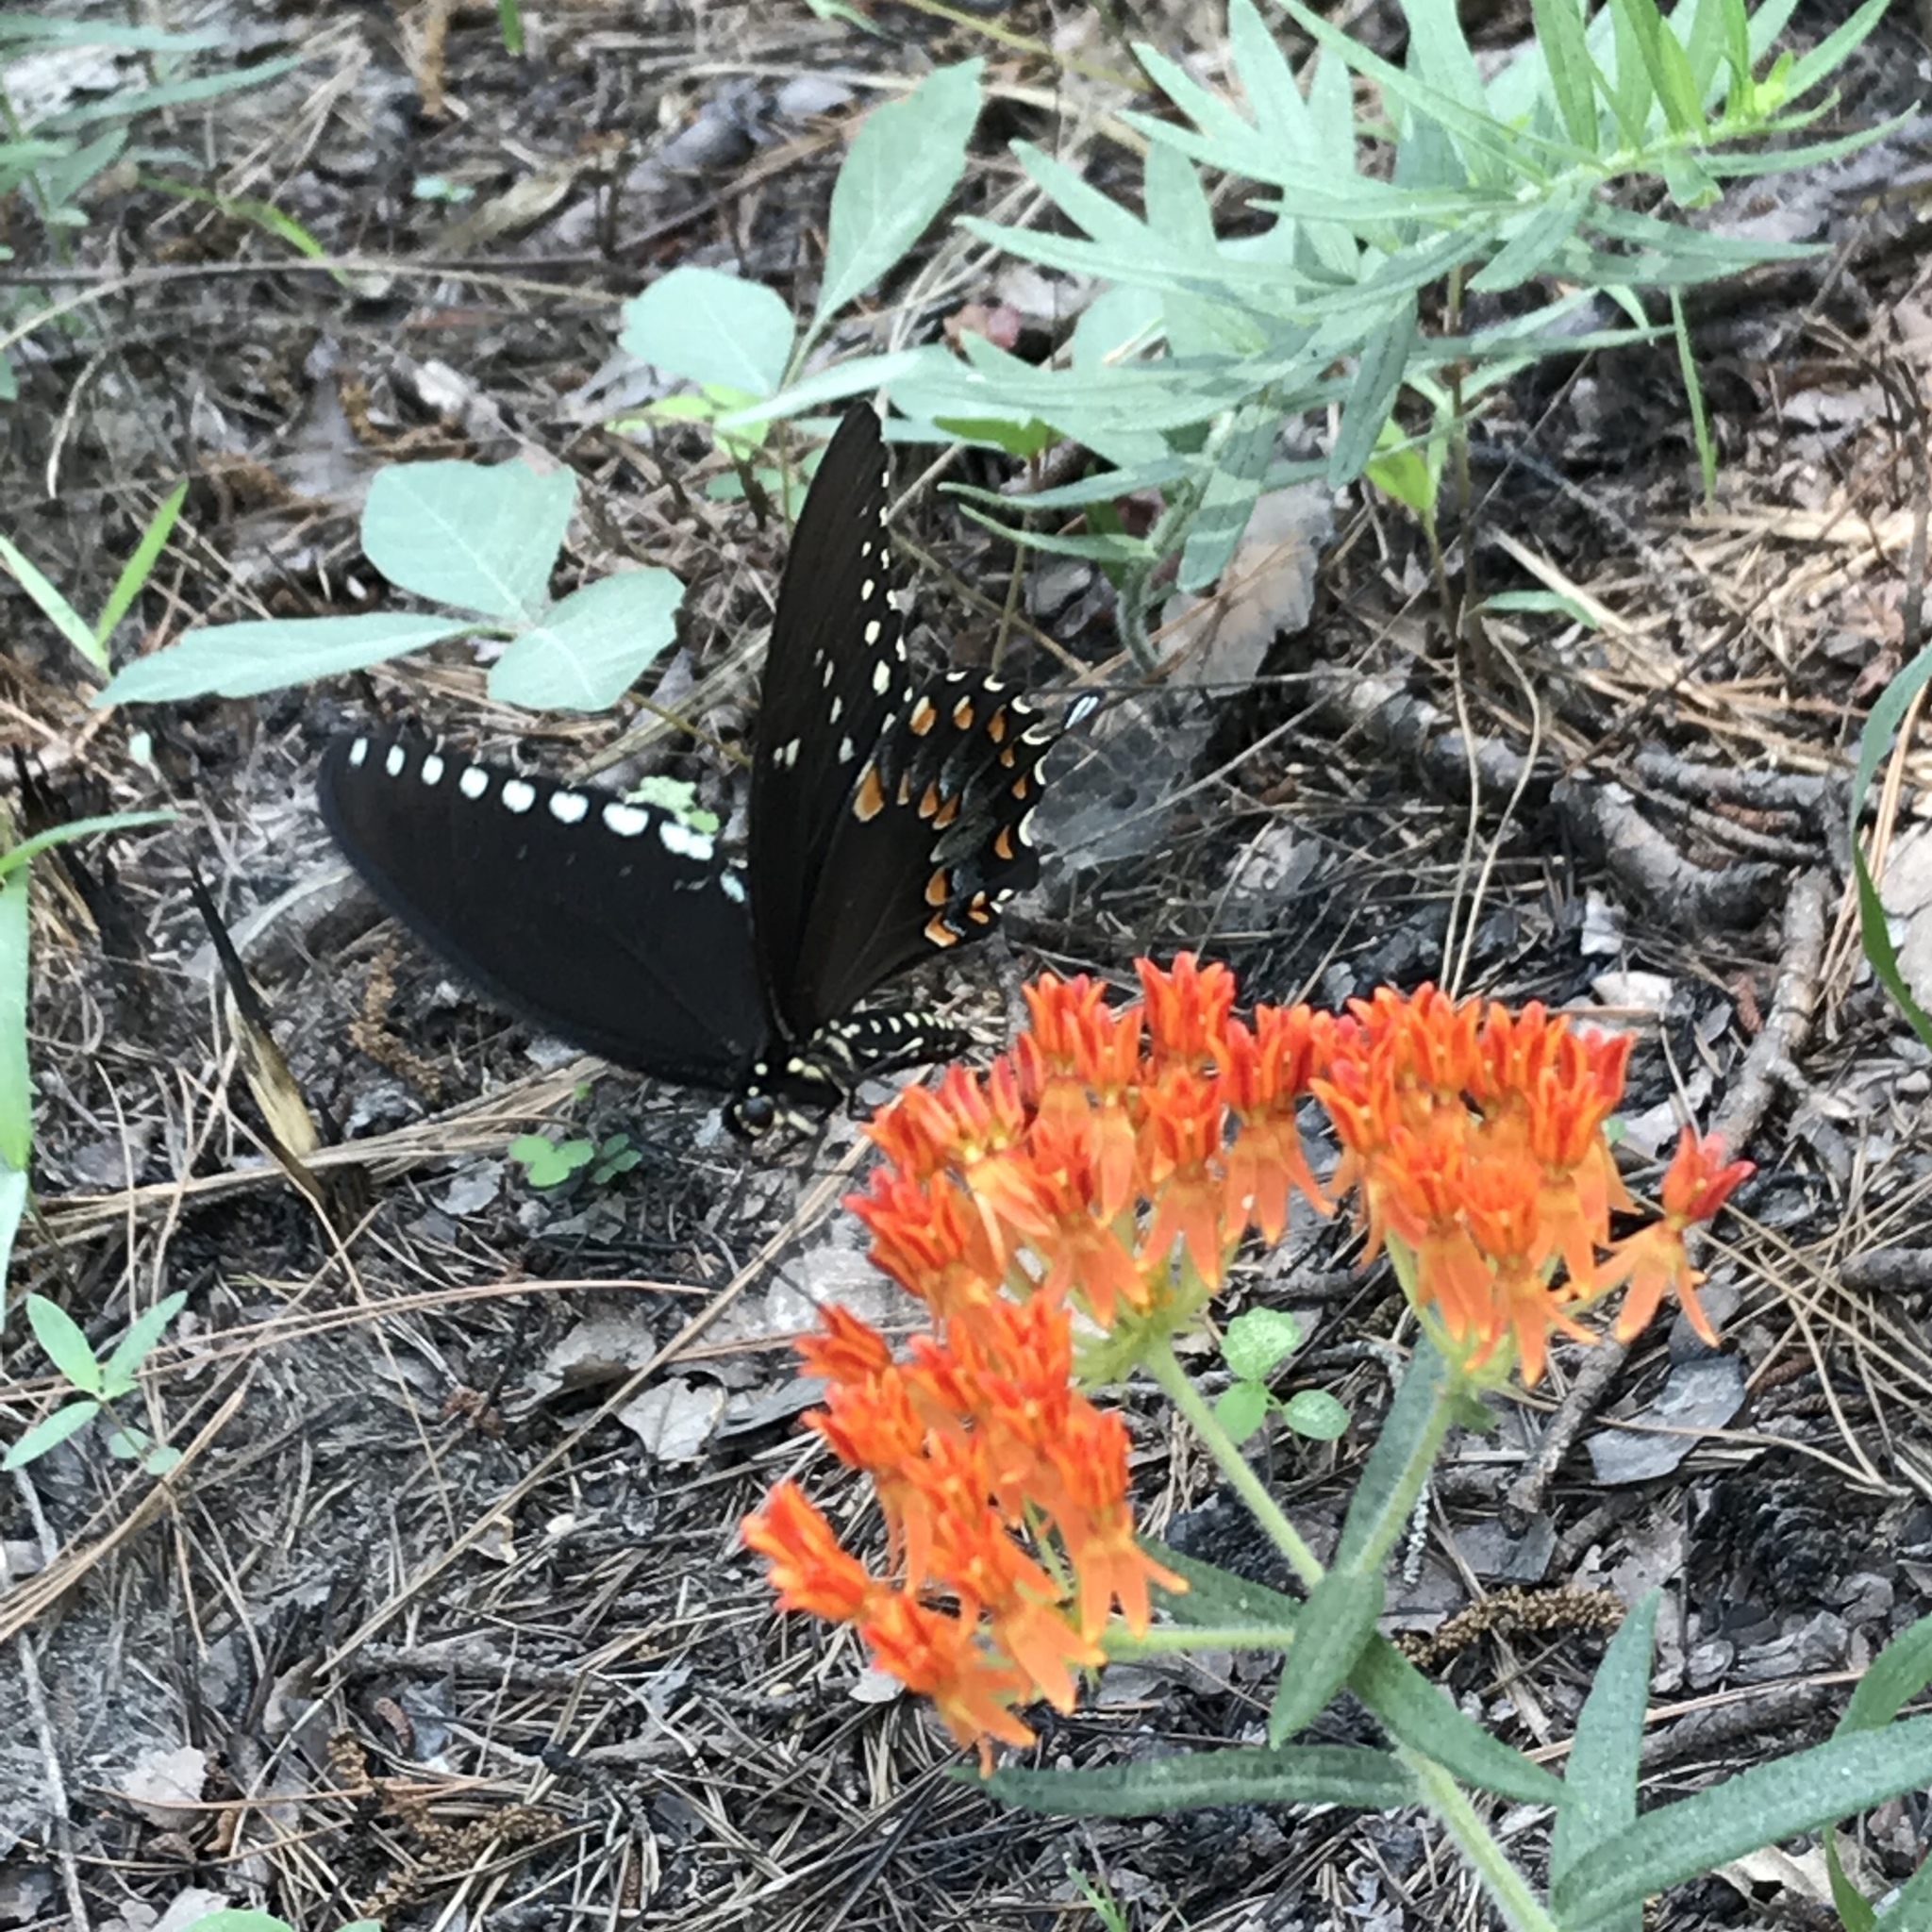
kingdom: Animalia
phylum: Arthropoda
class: Insecta
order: Lepidoptera
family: Papilionidae
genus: Papilio
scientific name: Papilio troilus
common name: Spicebush swallowtail
